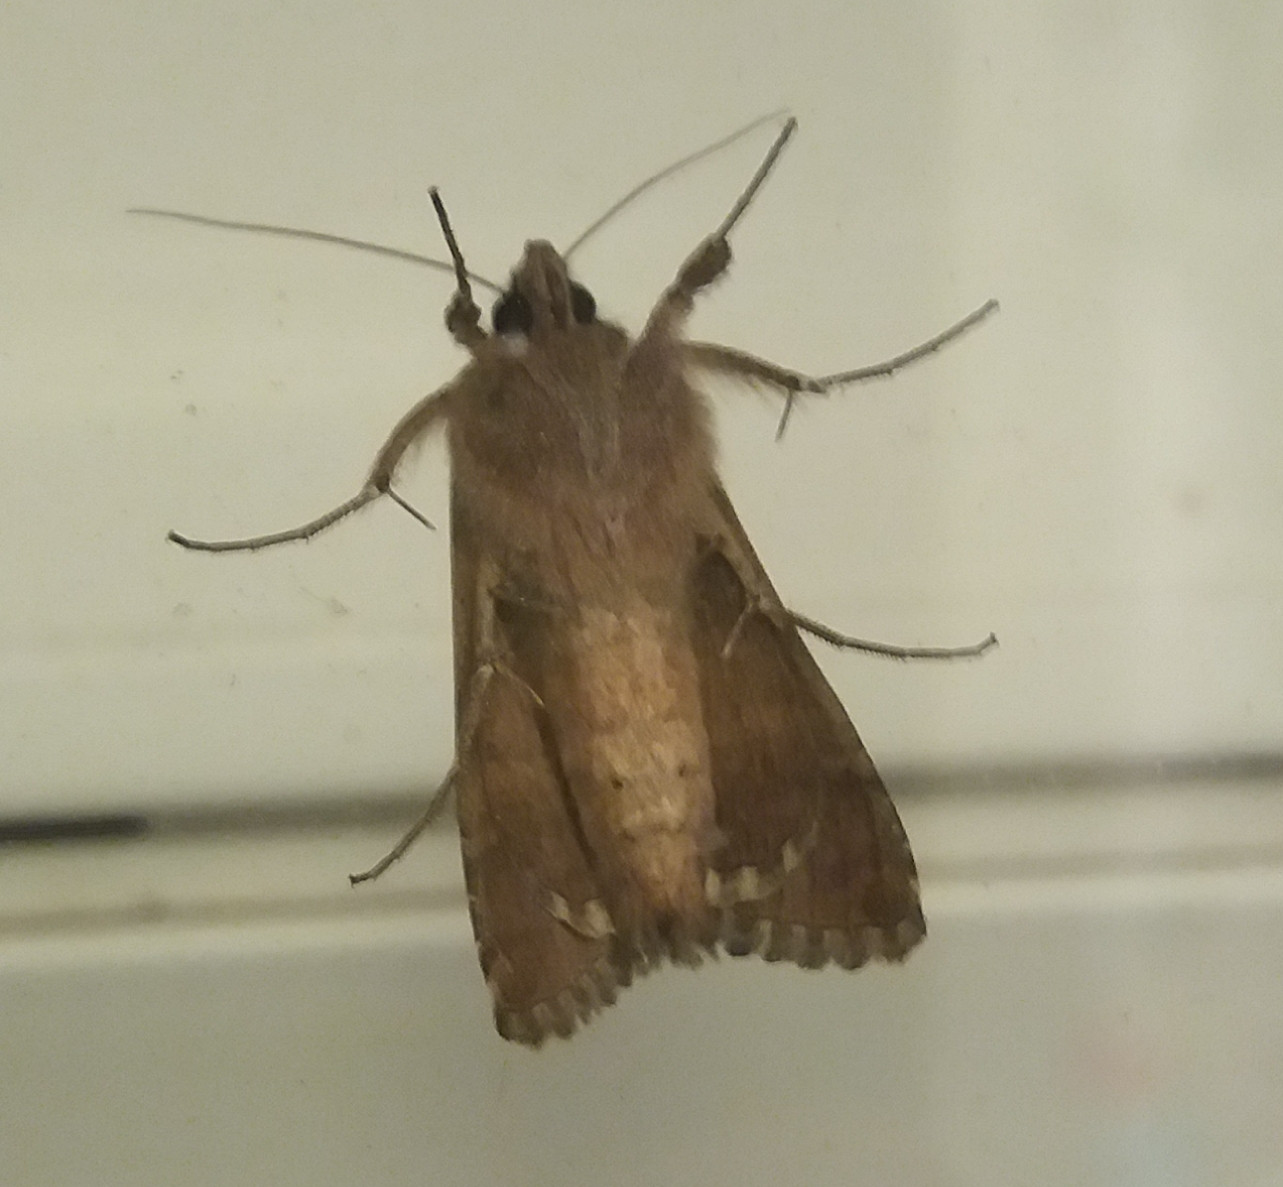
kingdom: Animalia
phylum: Arthropoda
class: Insecta
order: Lepidoptera
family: Noctuidae
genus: Autographa
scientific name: Autographa gamma
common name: Silver y
